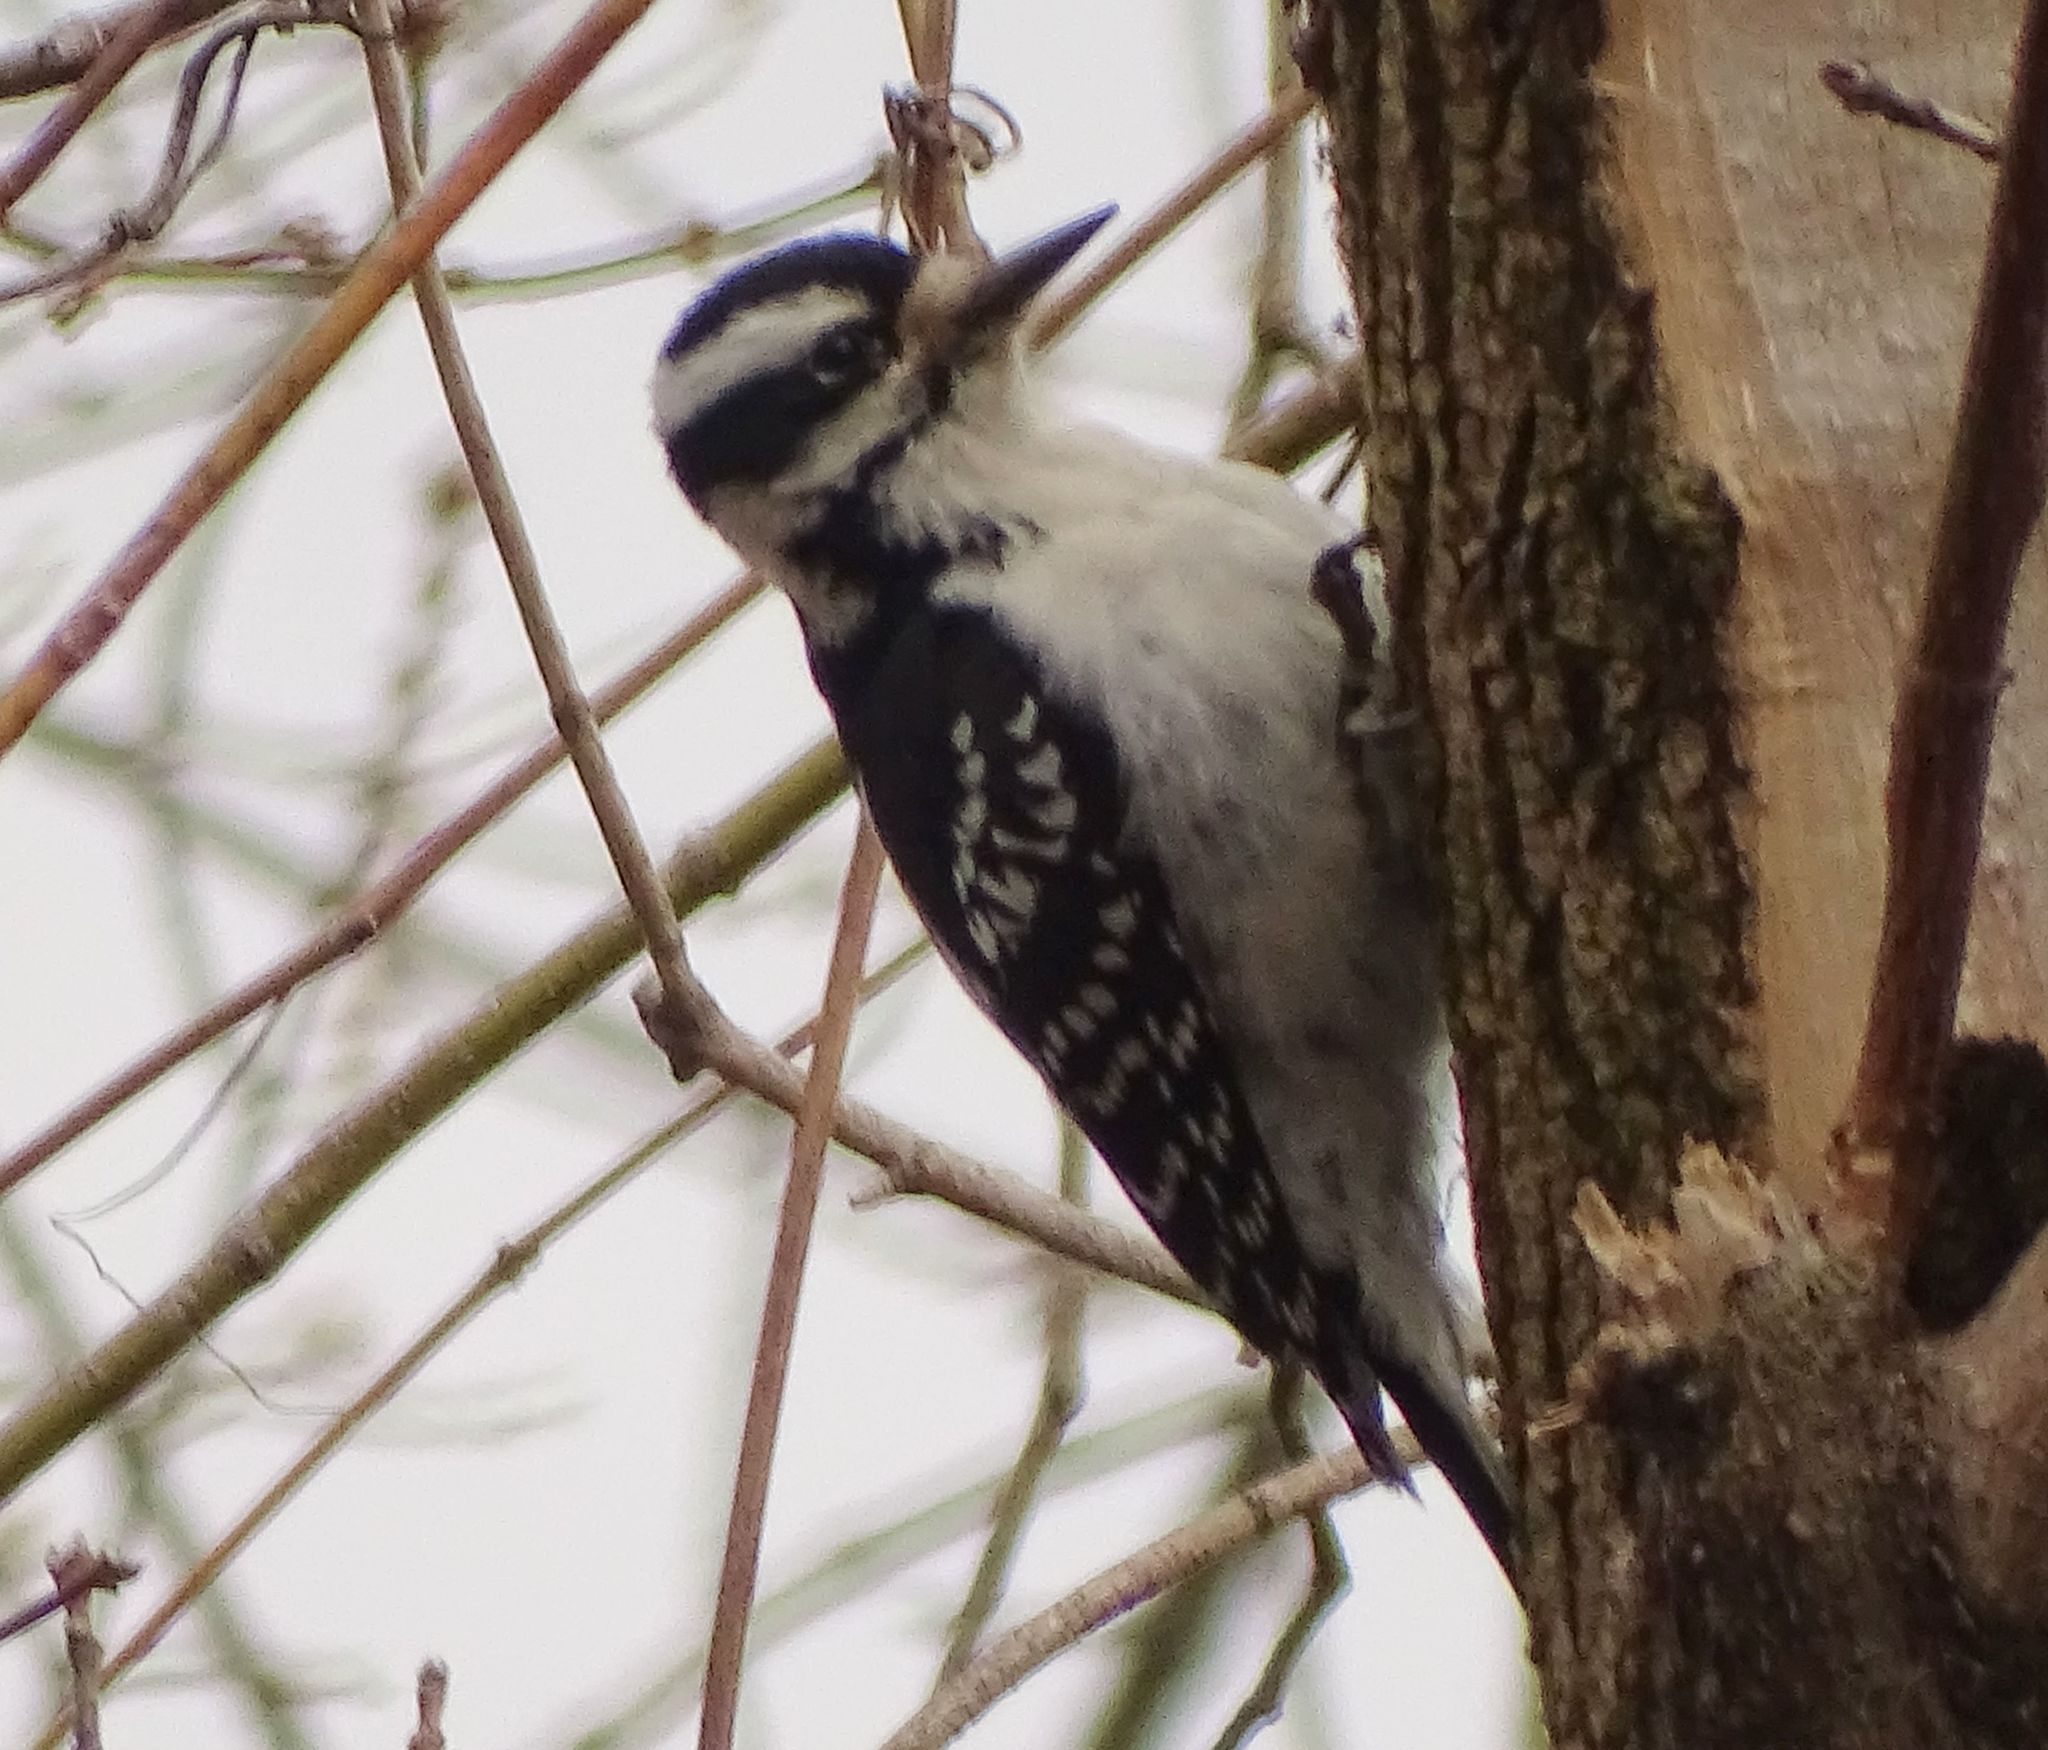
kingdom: Animalia
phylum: Chordata
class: Aves
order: Piciformes
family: Picidae
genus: Leuconotopicus
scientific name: Leuconotopicus villosus
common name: Hairy woodpecker
